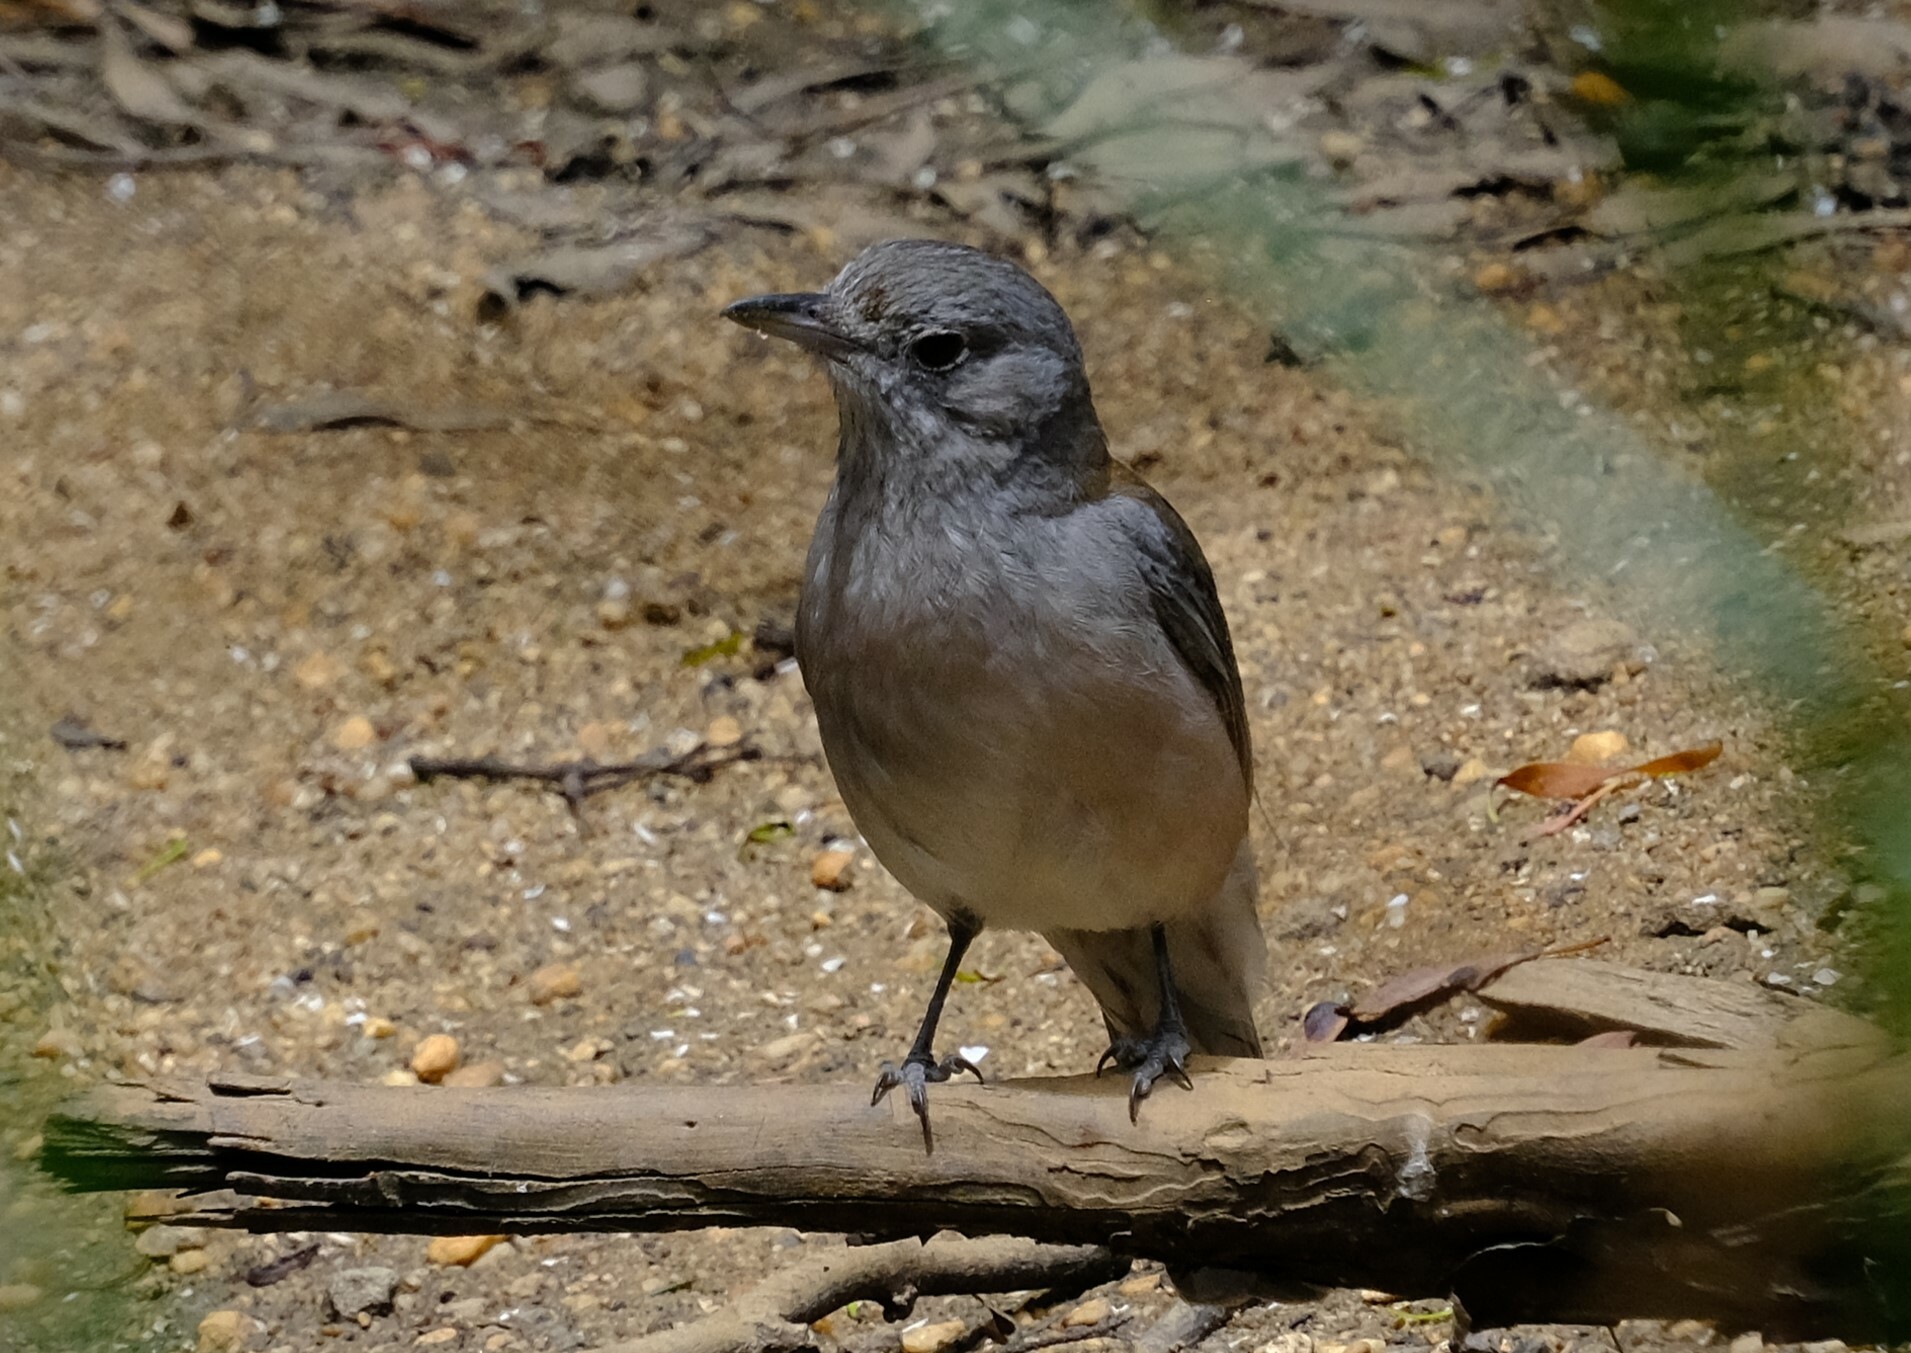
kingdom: Animalia
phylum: Chordata
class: Aves
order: Passeriformes
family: Pachycephalidae
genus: Colluricincla
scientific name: Colluricincla harmonica
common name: Grey shrikethrush
